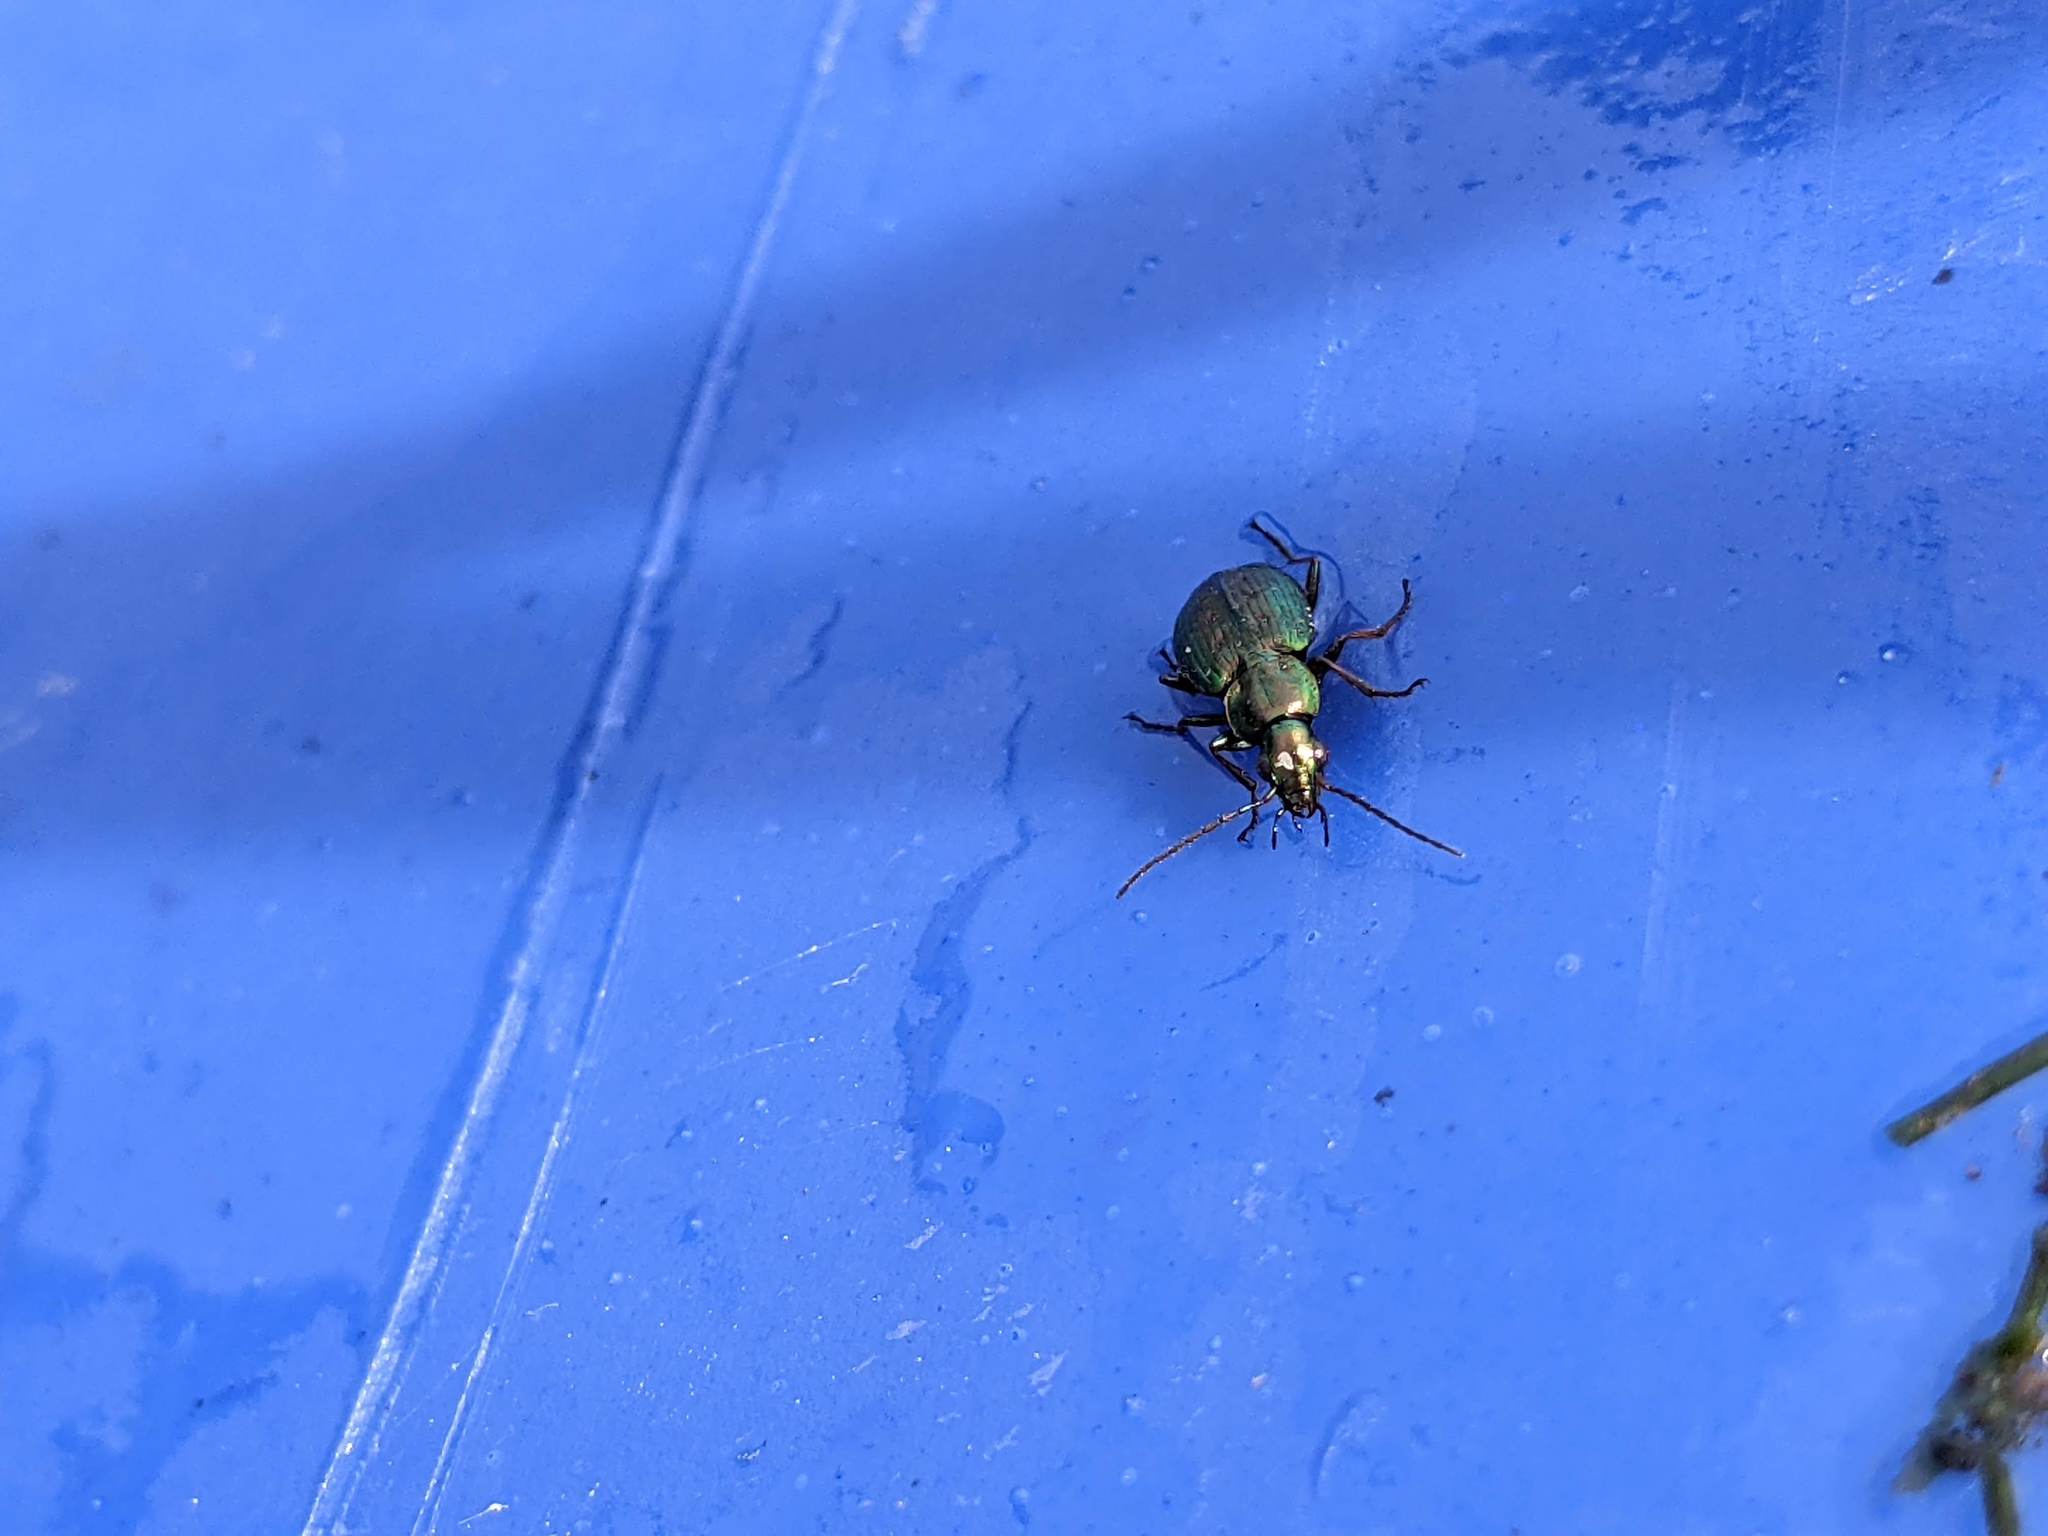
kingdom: Animalia
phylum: Arthropoda
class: Insecta
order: Coleoptera
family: Carabidae
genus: Agonum
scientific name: Agonum octopunctatum
